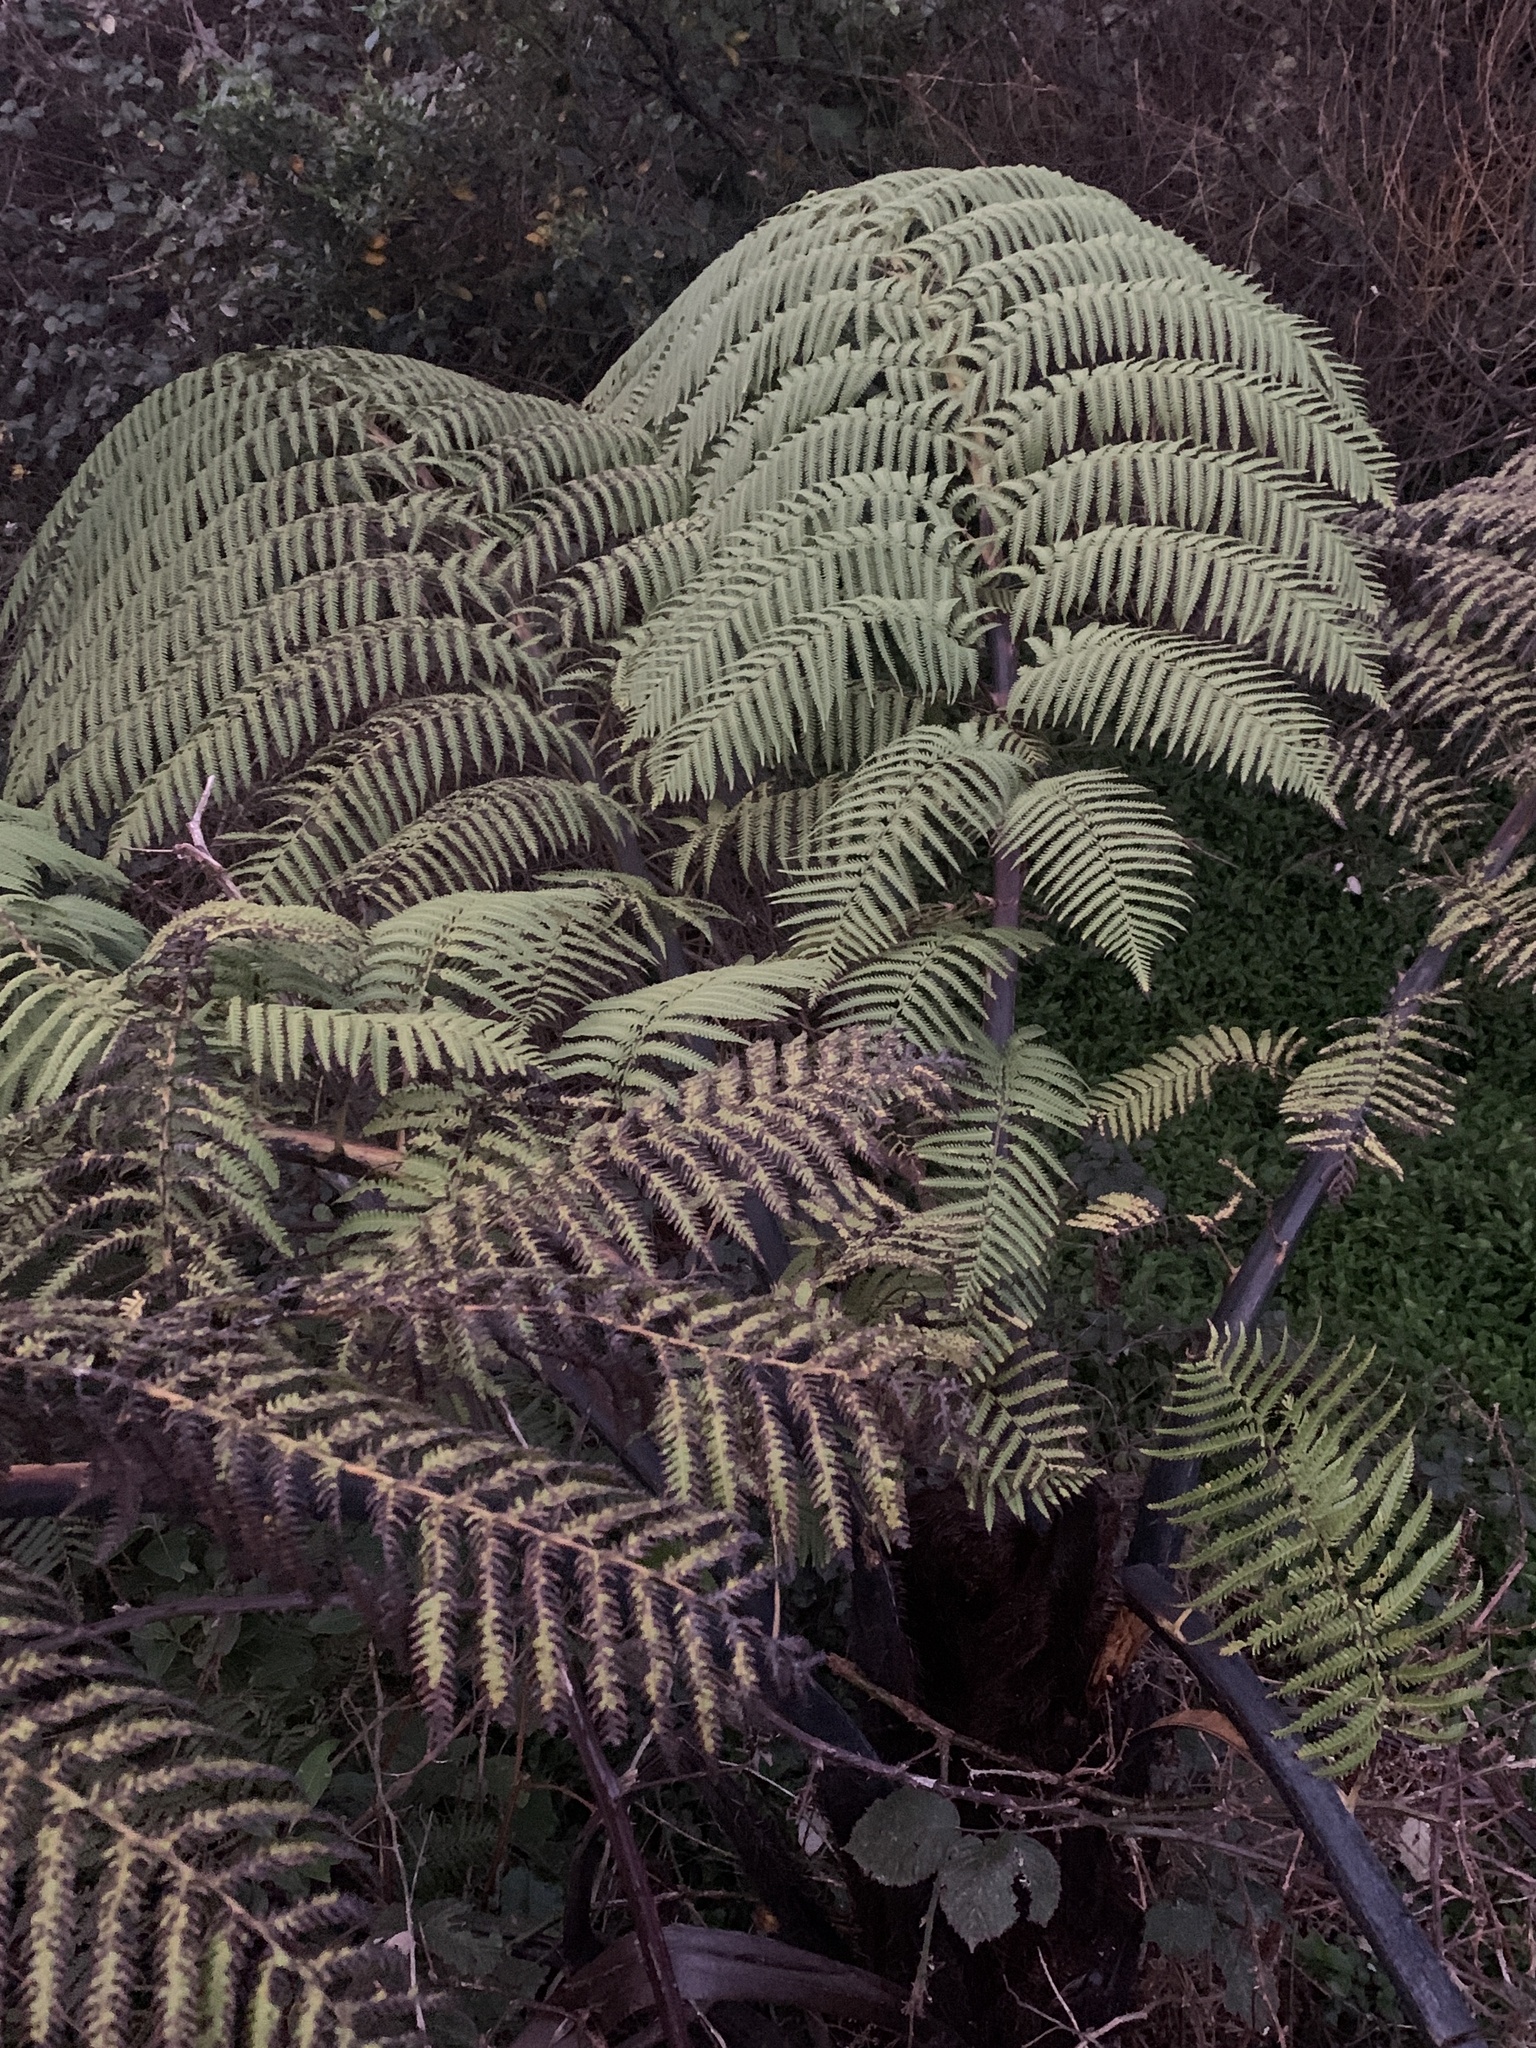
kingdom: Plantae
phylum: Tracheophyta
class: Polypodiopsida
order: Cyatheales
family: Cyatheaceae
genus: Sphaeropteris
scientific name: Sphaeropteris medullaris
